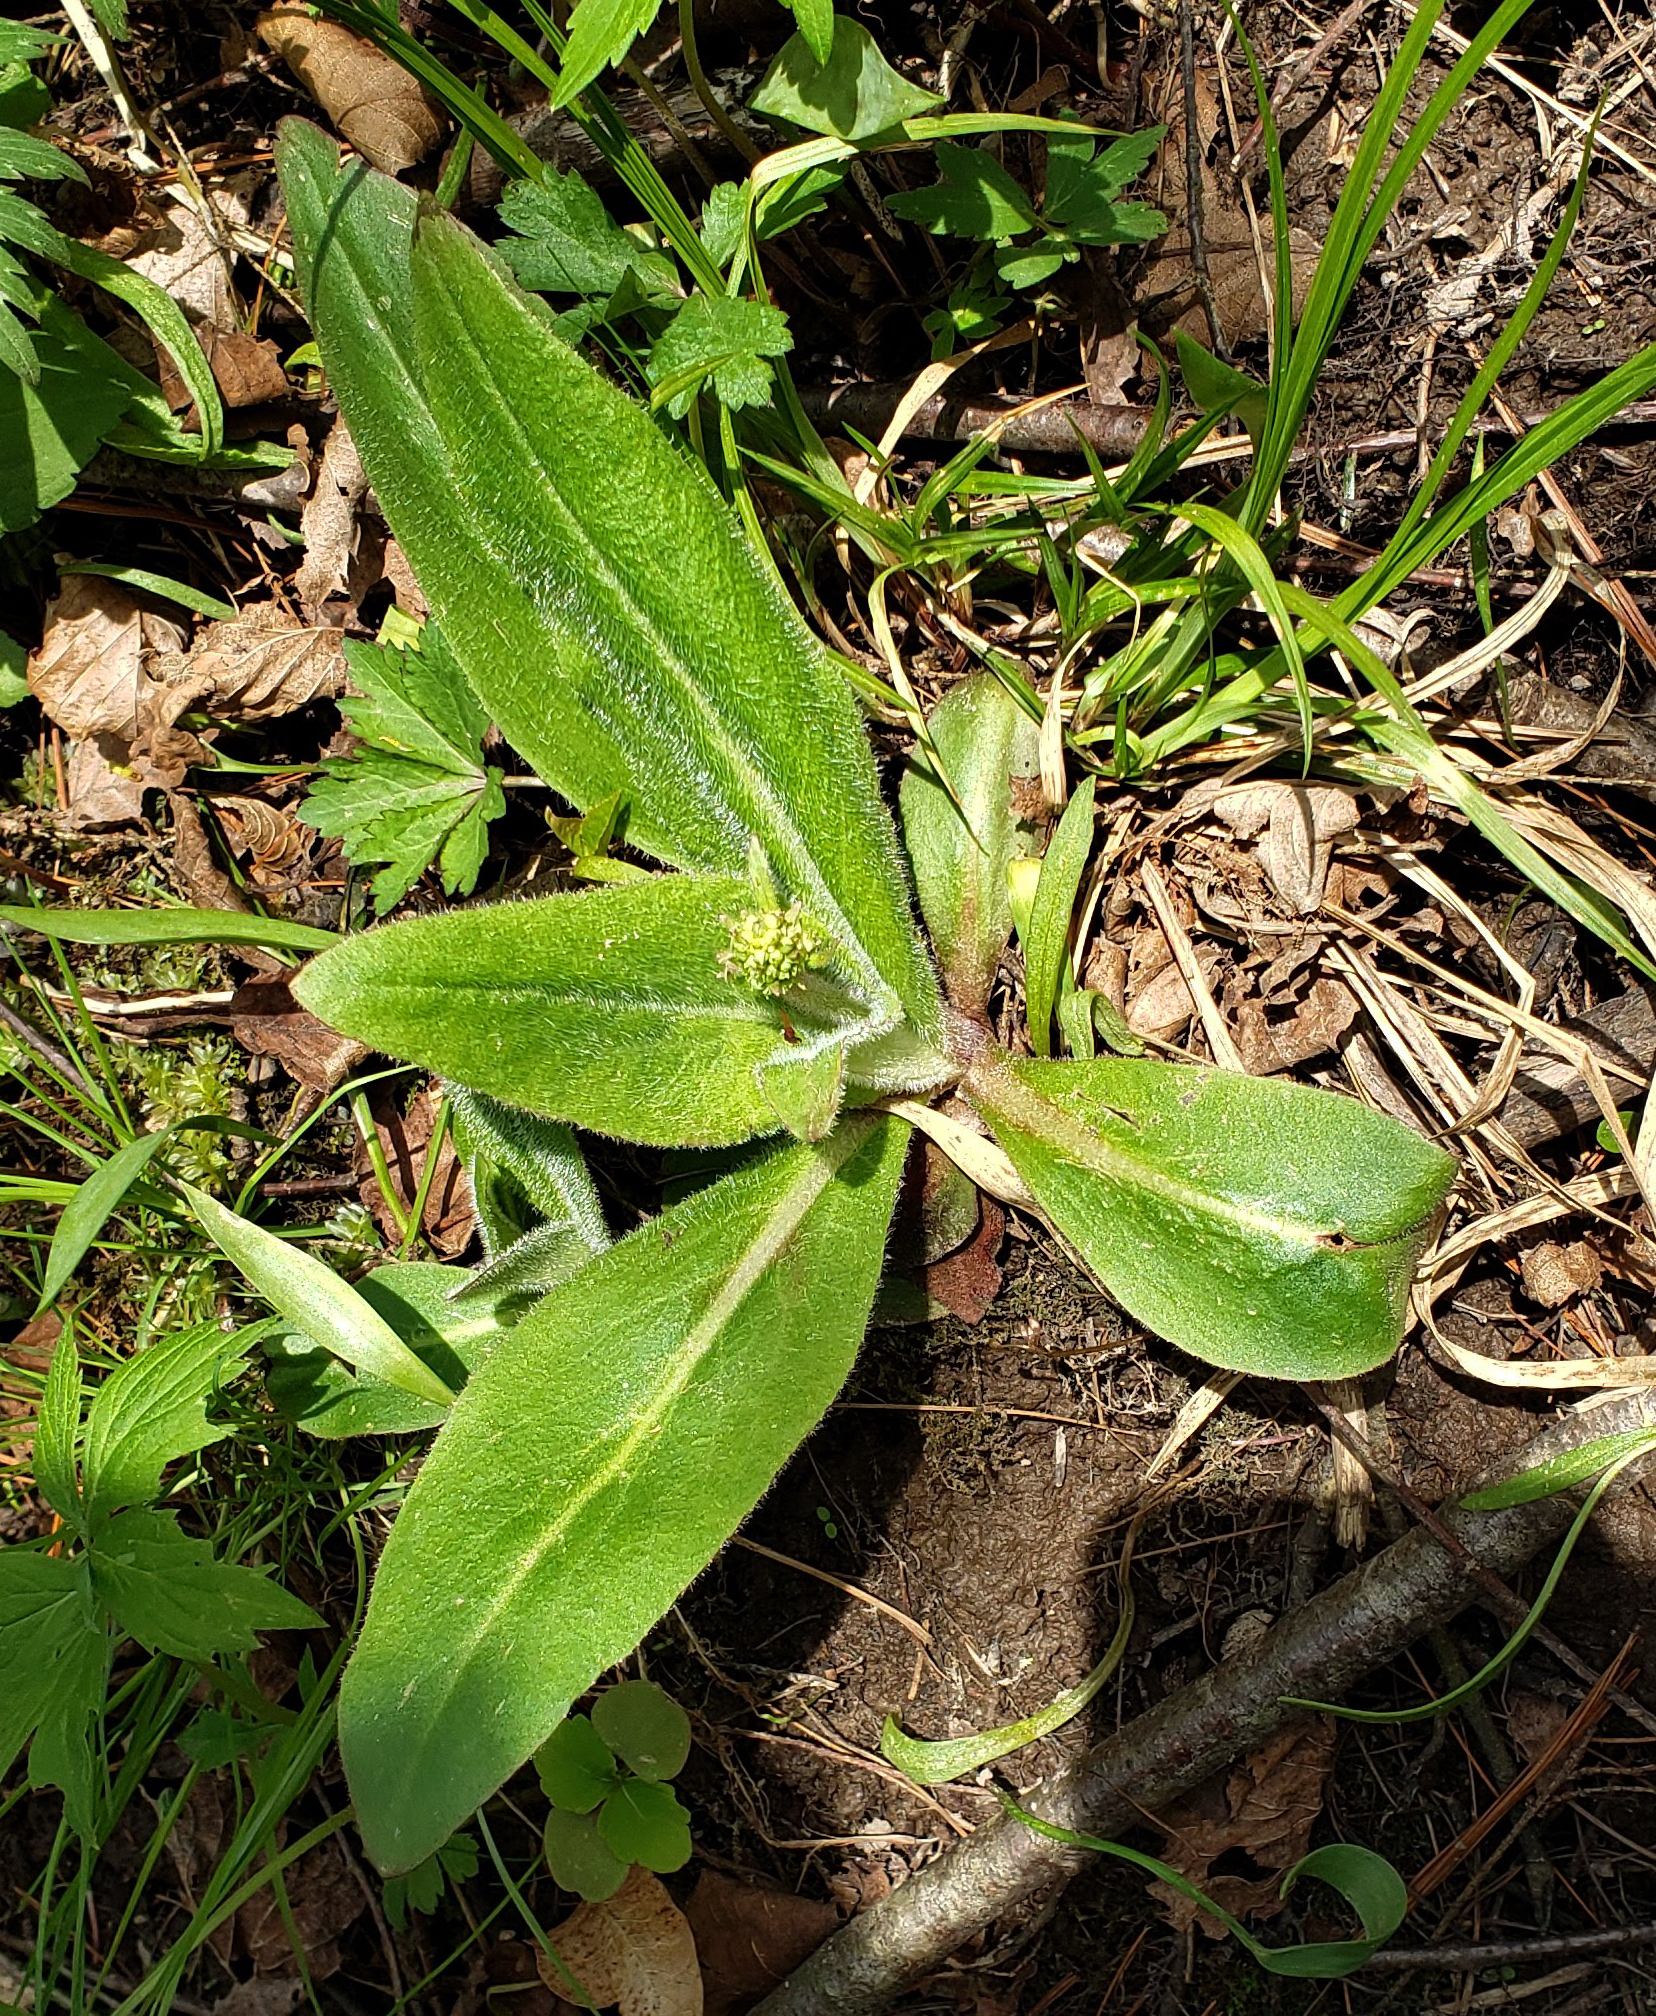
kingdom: Plantae
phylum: Tracheophyta
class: Magnoliopsida
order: Saxifragales
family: Saxifragaceae
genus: Micranthes
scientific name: Micranthes pensylvanica
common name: Marsh saxifrage
